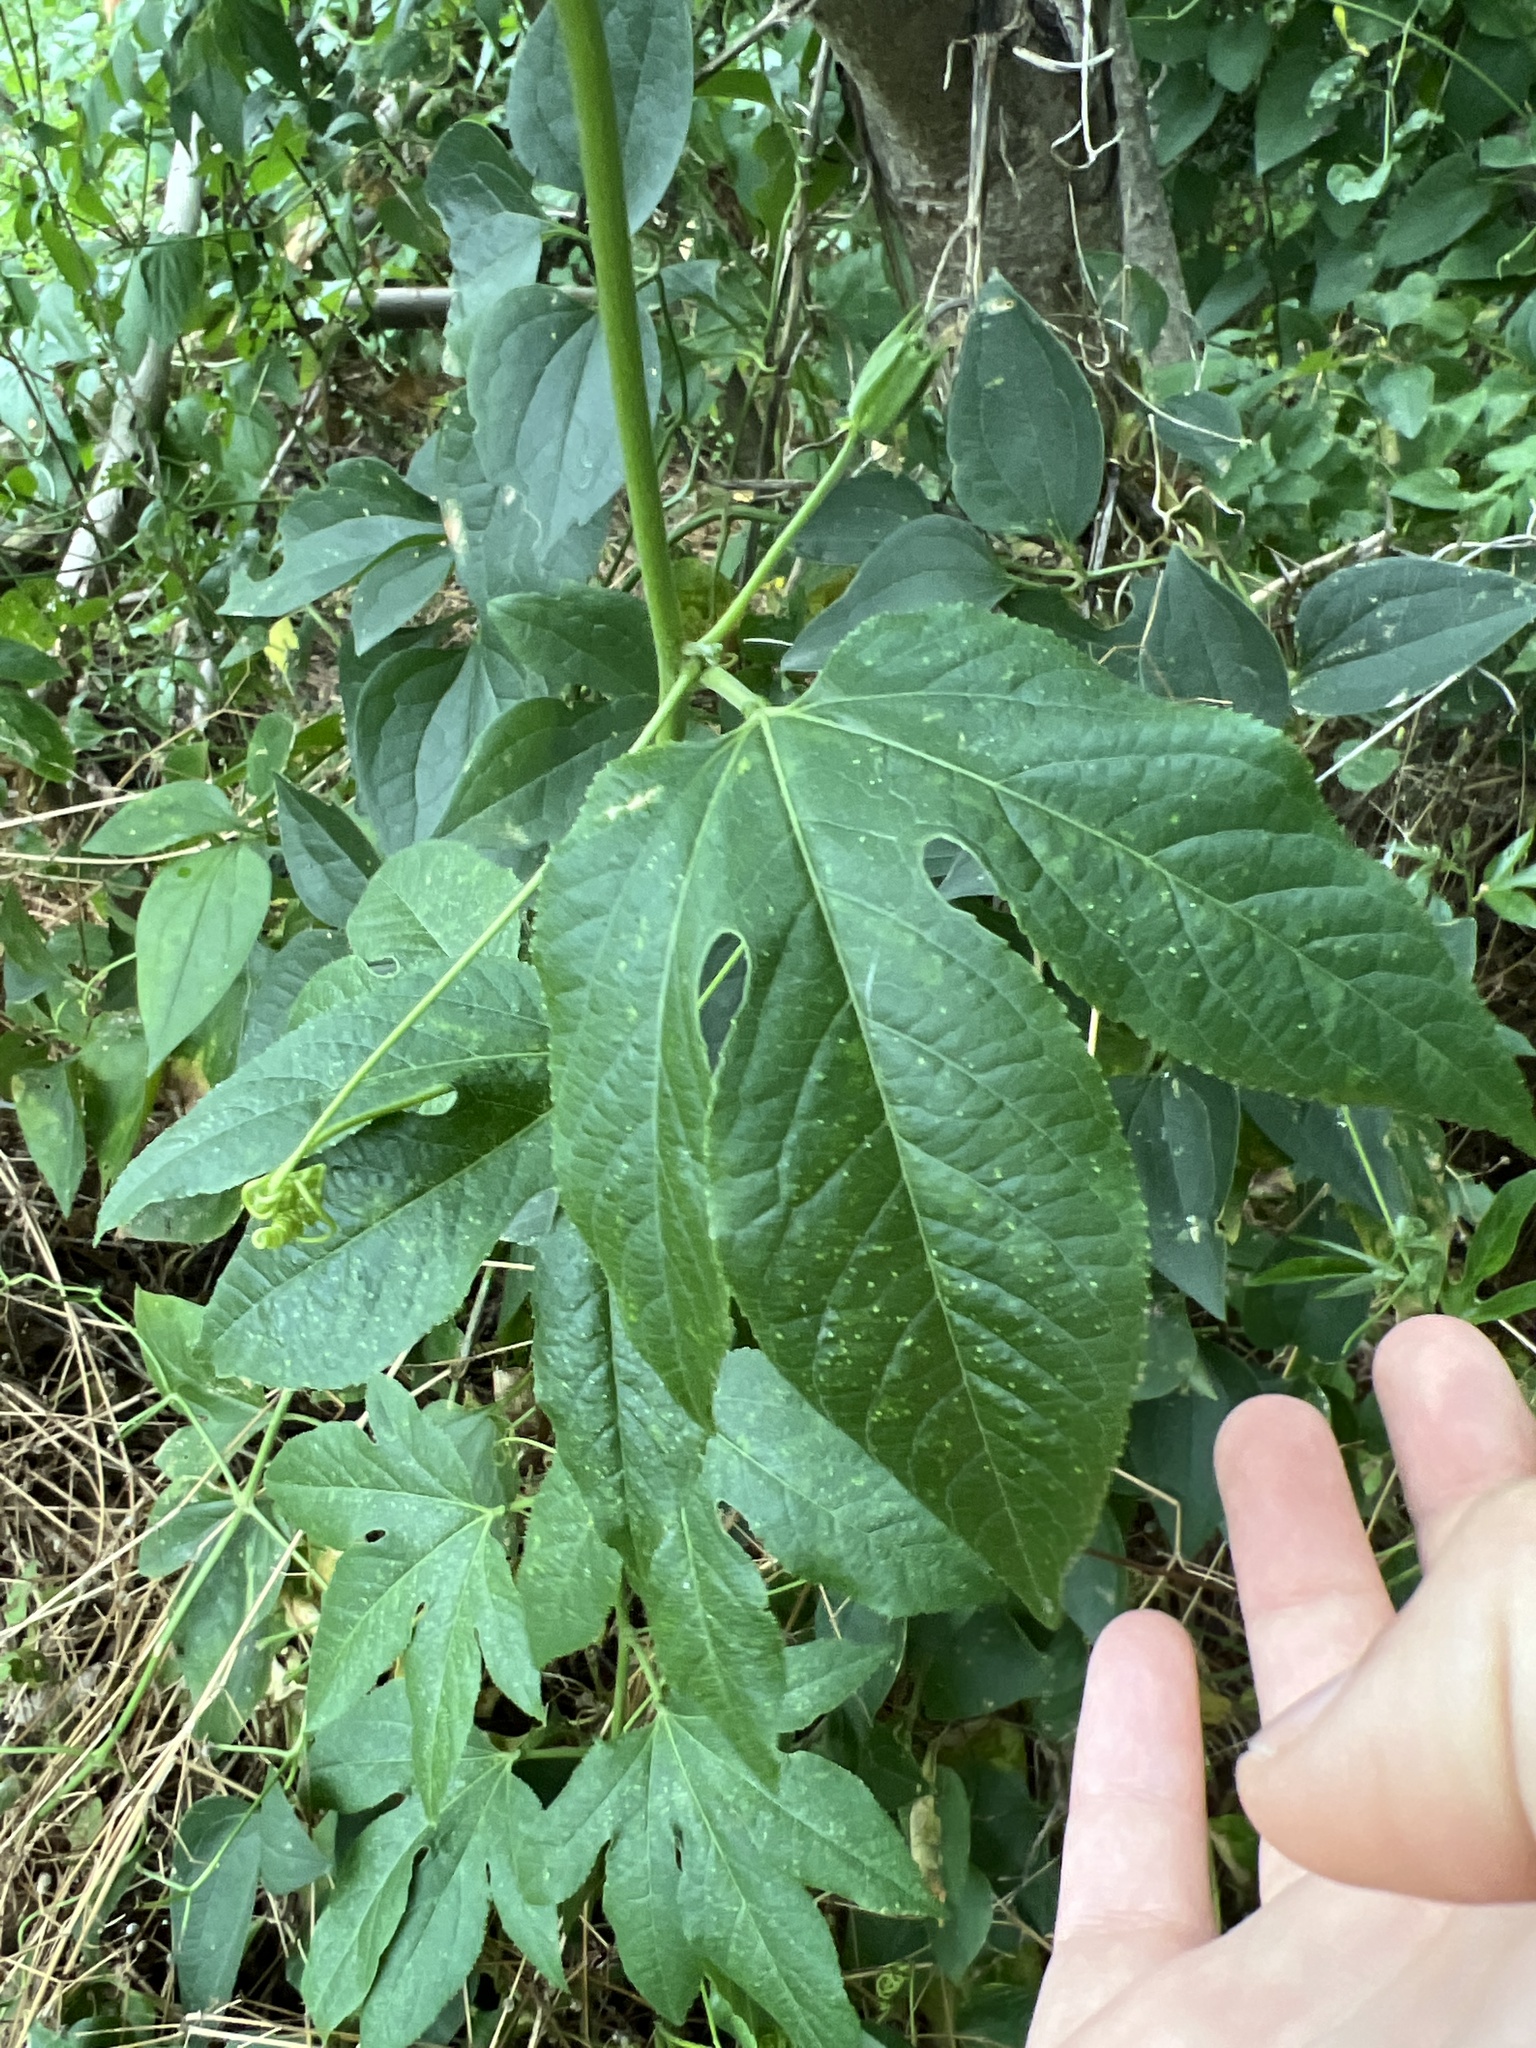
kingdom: Plantae
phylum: Tracheophyta
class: Magnoliopsida
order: Malpighiales
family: Passifloraceae
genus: Passiflora
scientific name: Passiflora incarnata
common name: Apricot-vine
